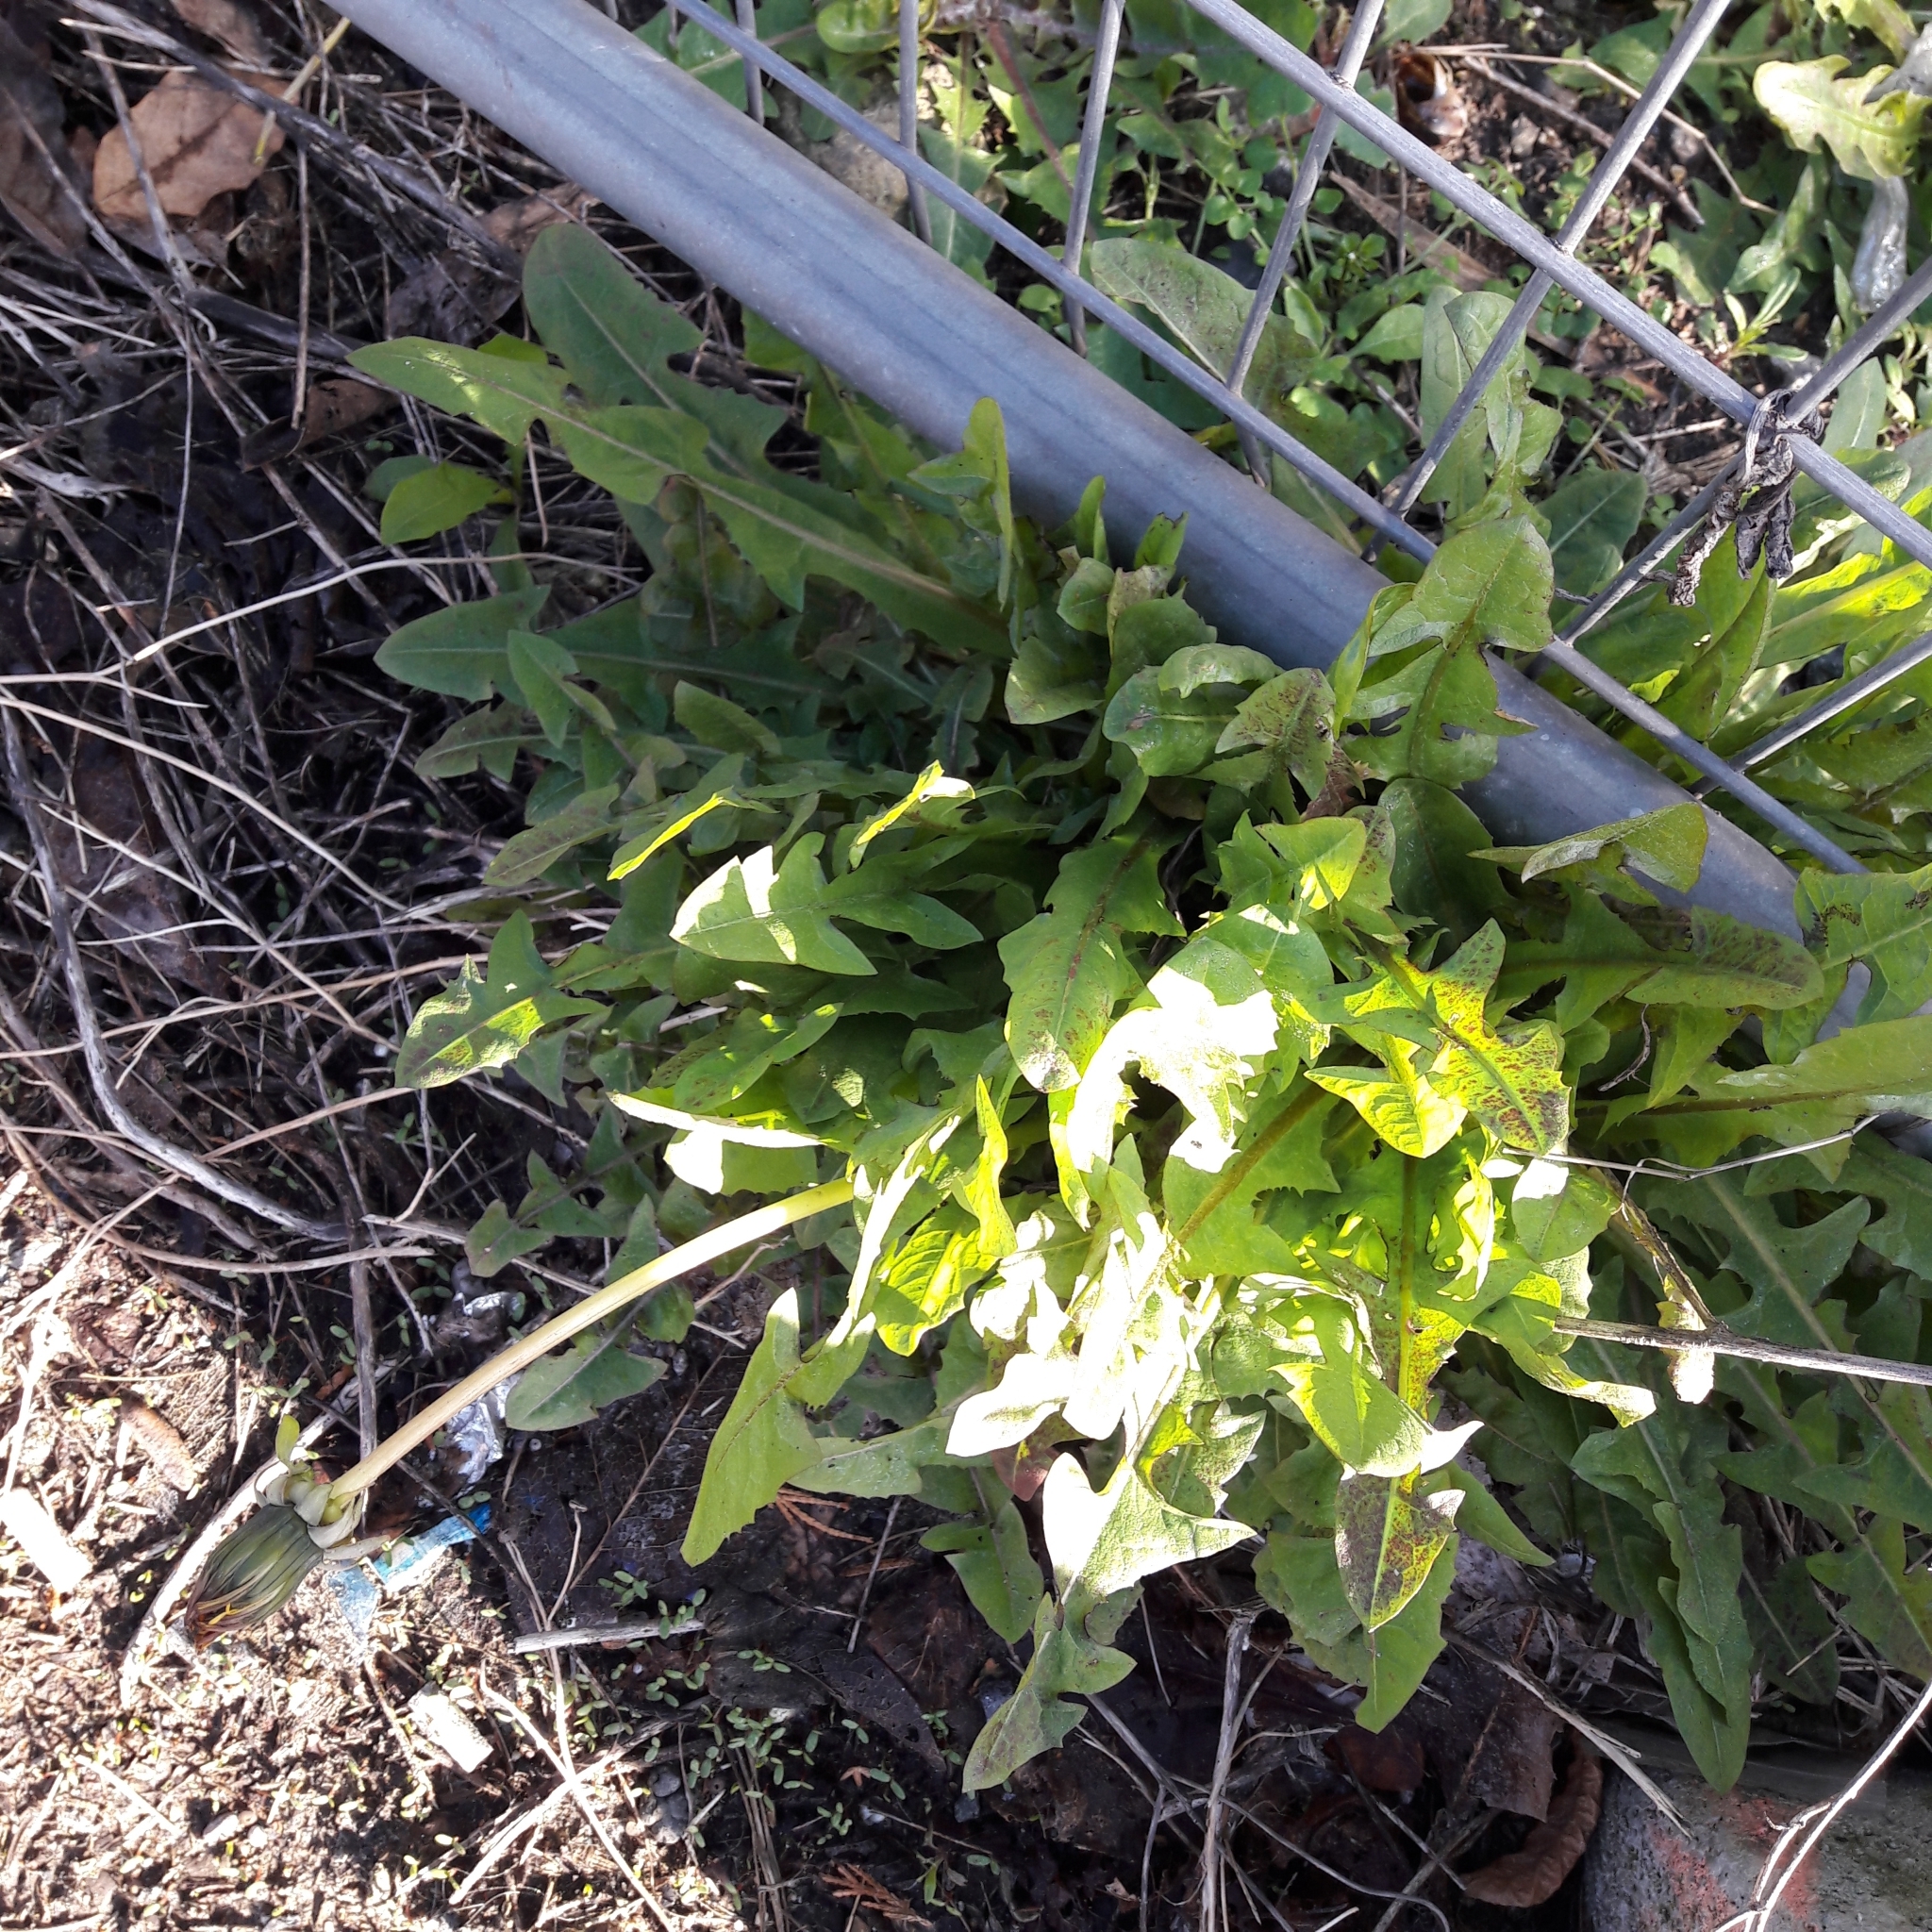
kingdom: Plantae
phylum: Tracheophyta
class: Magnoliopsida
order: Asterales
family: Asteraceae
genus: Taraxacum
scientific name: Taraxacum officinale
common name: Common dandelion
